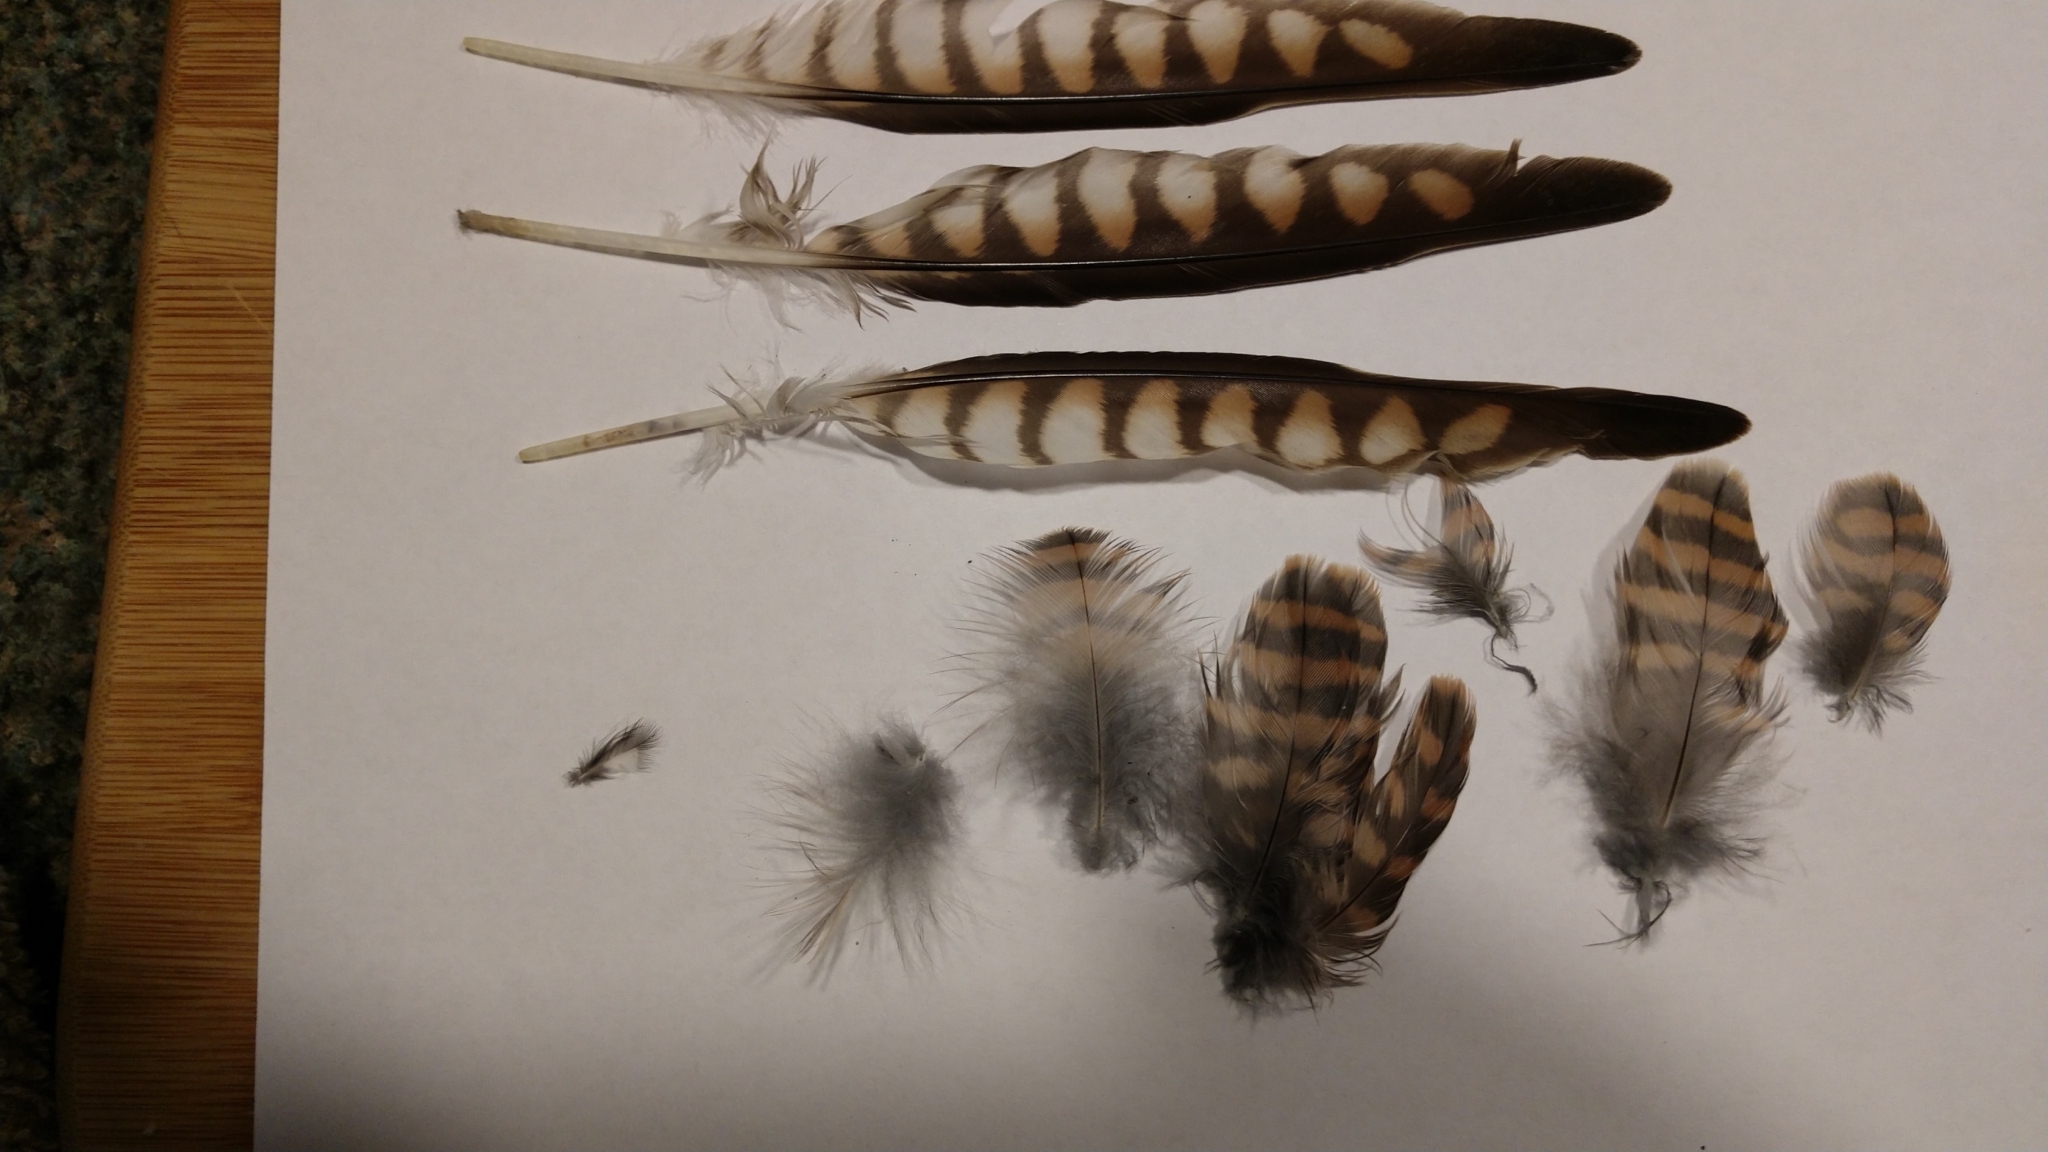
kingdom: Animalia
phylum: Chordata
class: Aves
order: Falconiformes
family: Falconidae
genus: Falco
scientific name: Falco sparverius
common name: American kestrel
